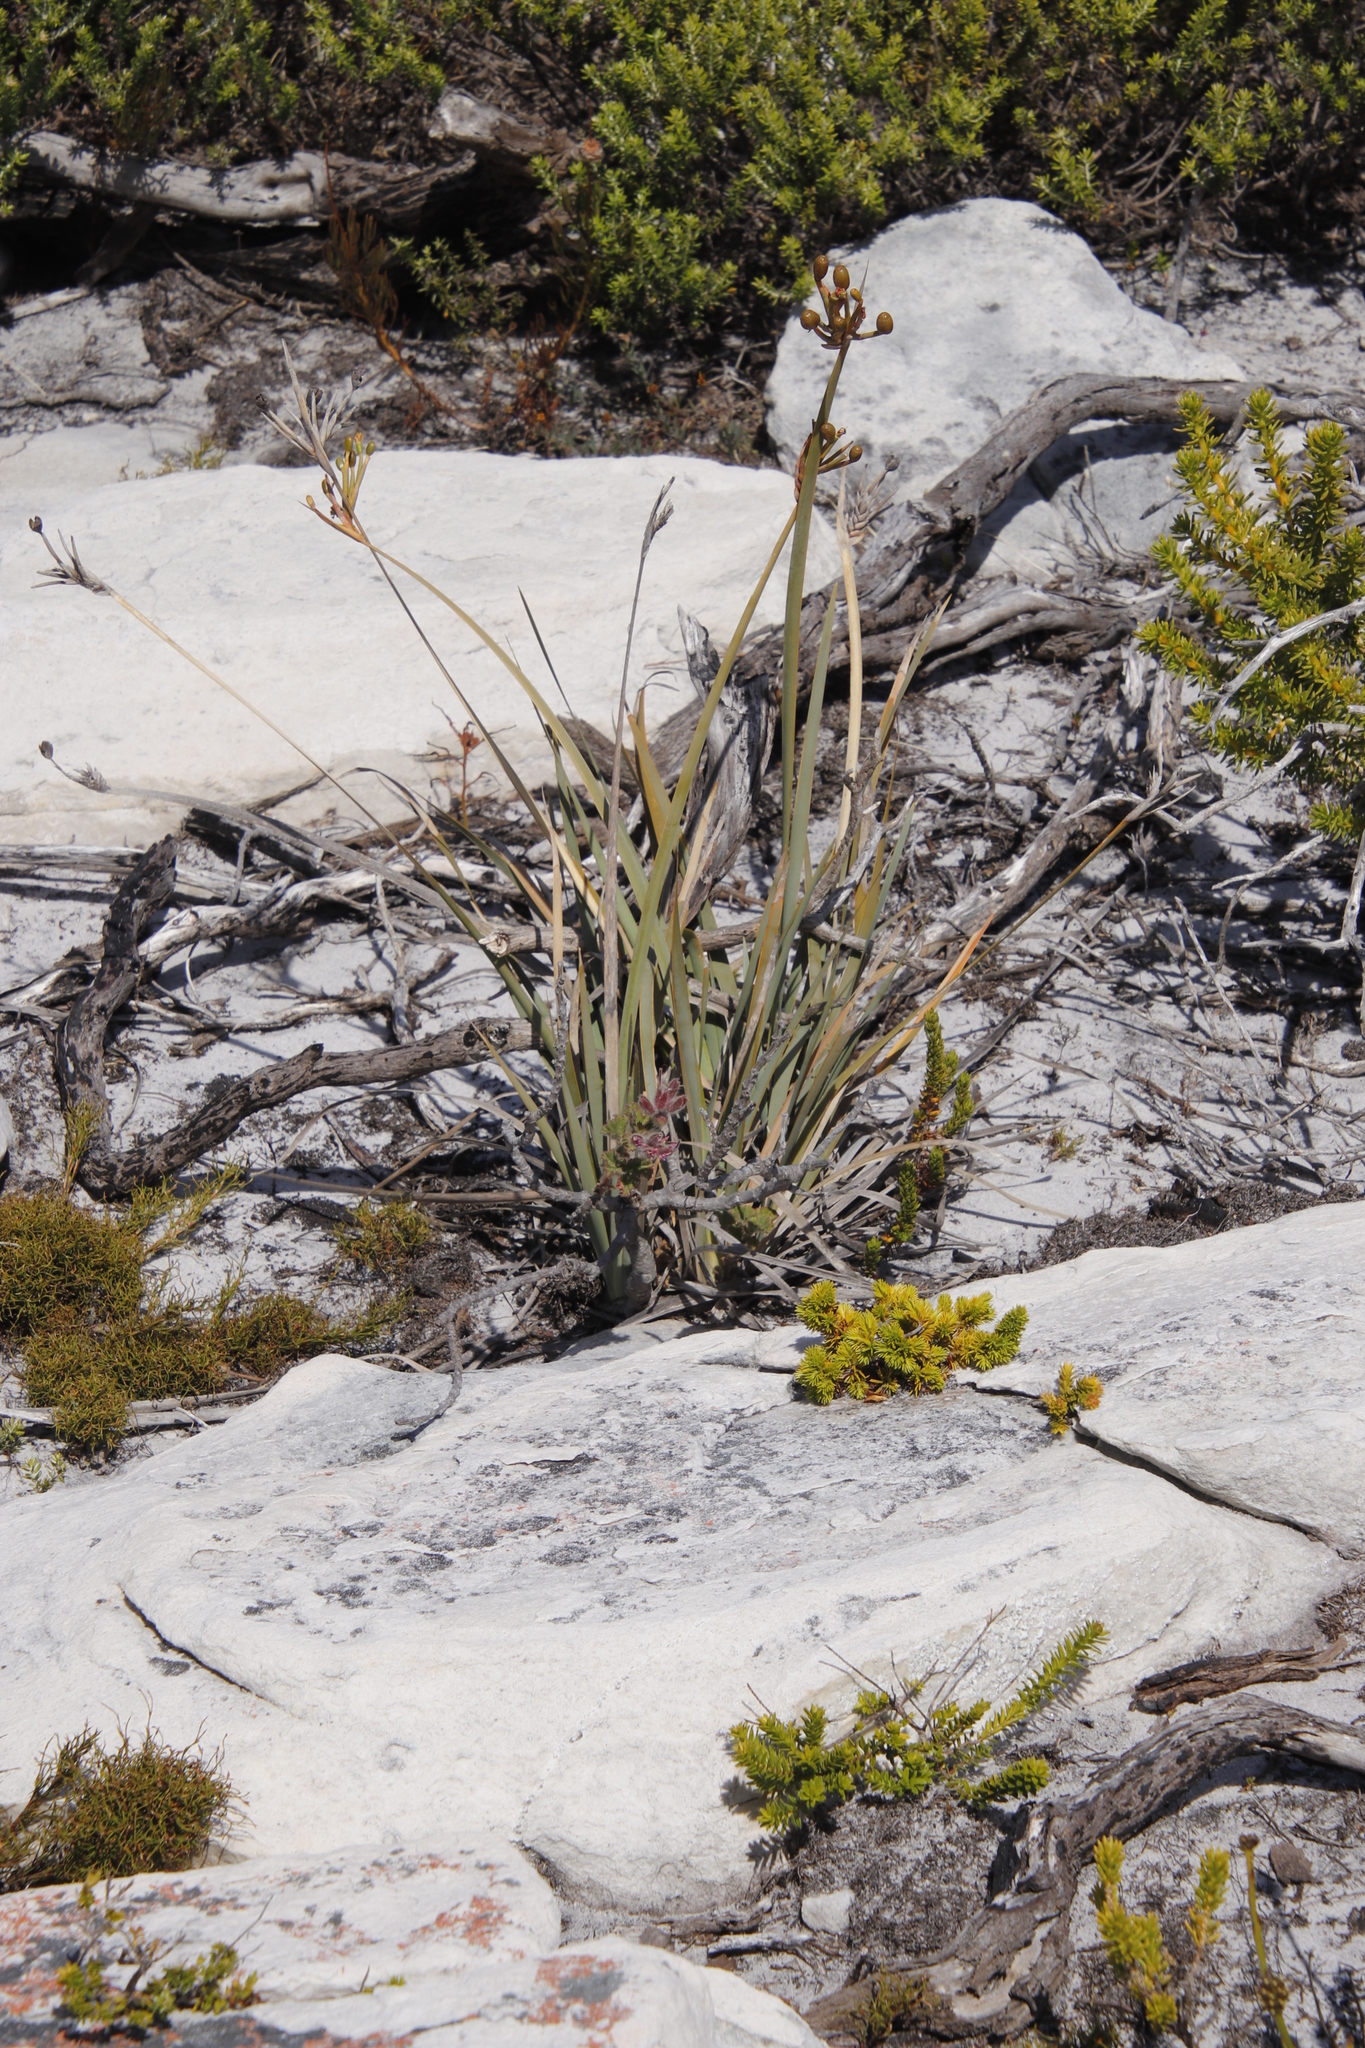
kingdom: Plantae
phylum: Tracheophyta
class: Liliopsida
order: Asparagales
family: Iridaceae
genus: Bobartia
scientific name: Bobartia gladiata
